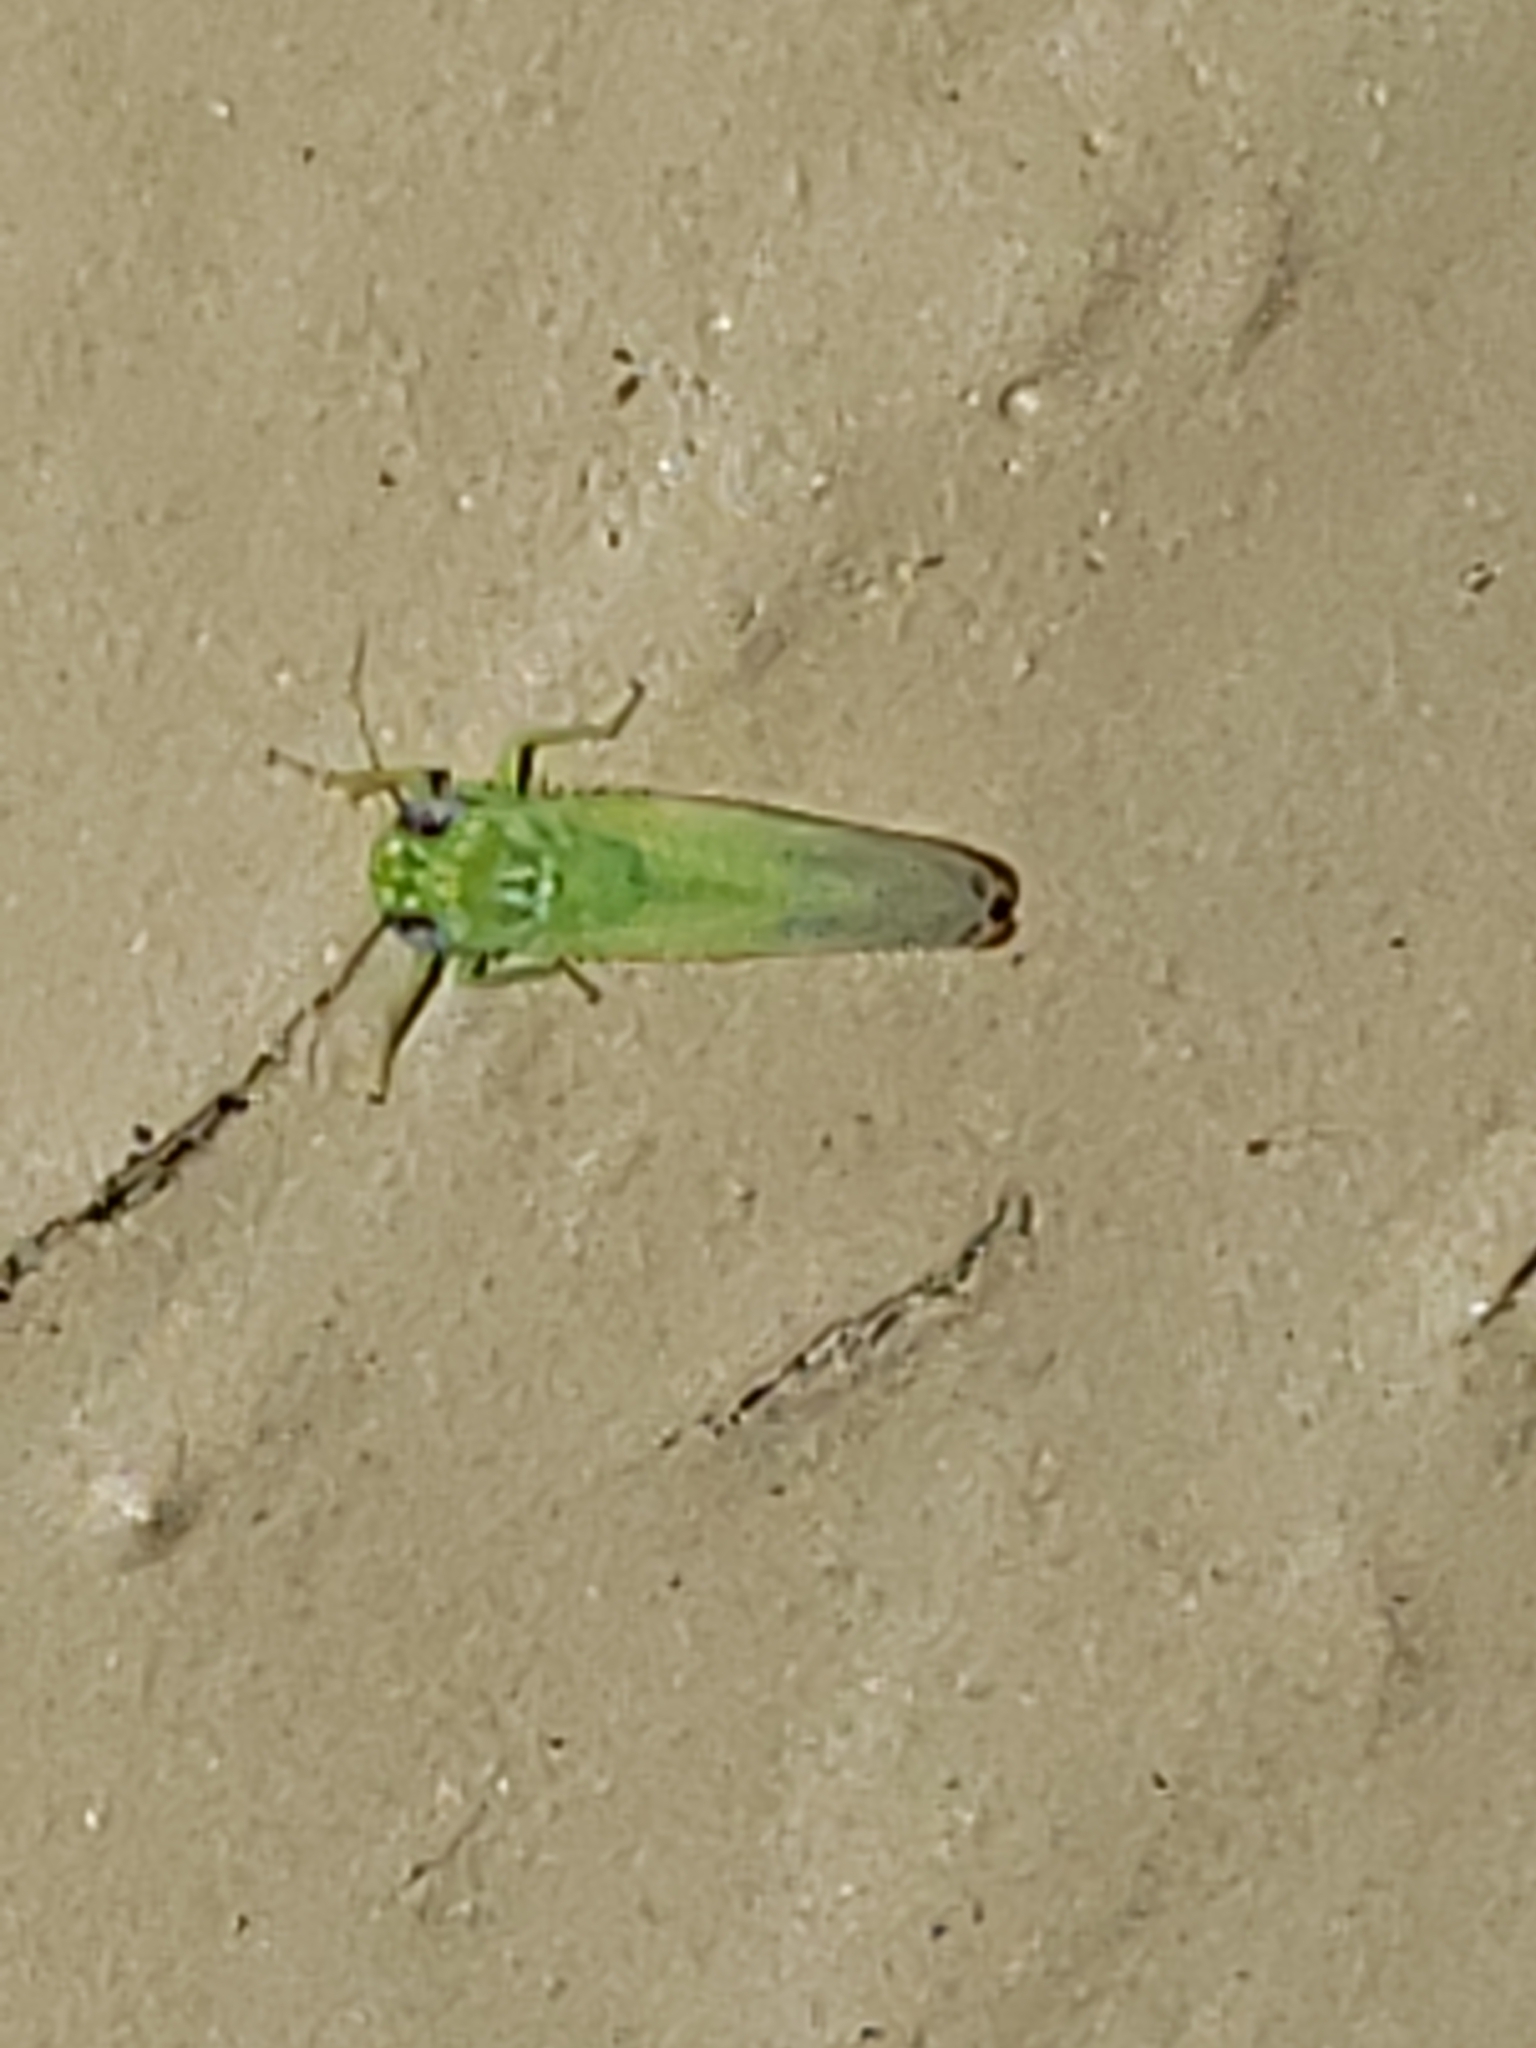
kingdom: Animalia
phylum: Arthropoda
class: Insecta
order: Hemiptera
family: Cicadellidae
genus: Empoasca
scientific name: Empoasca fabae
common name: Potato leafhopper
